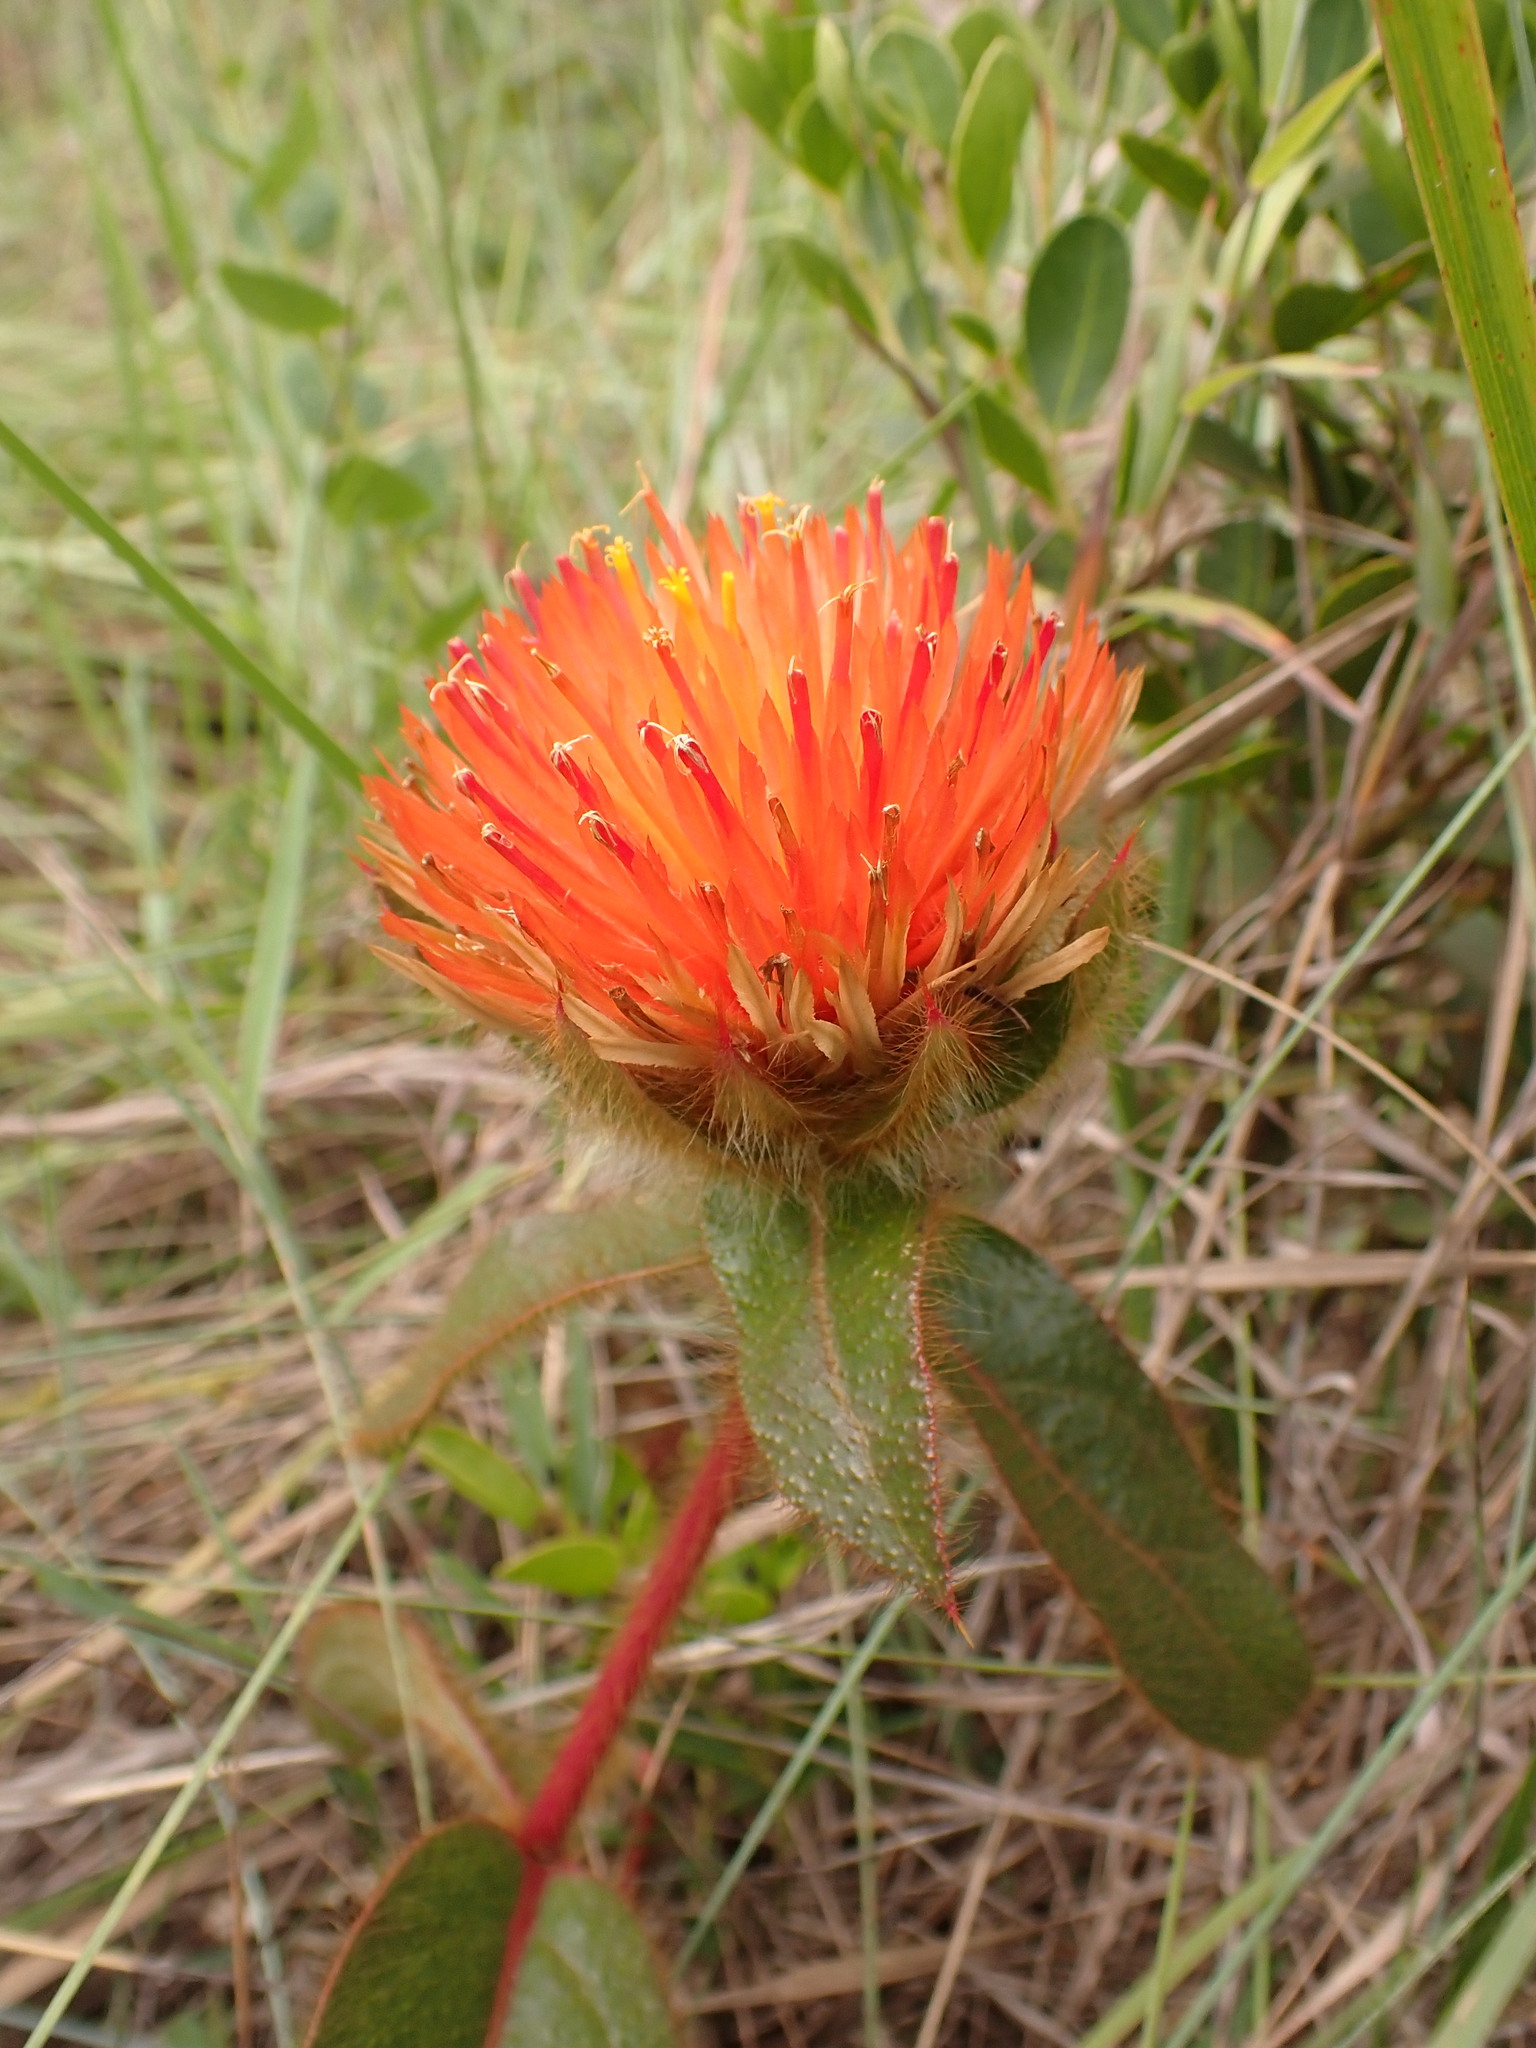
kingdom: Plantae
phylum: Tracheophyta
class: Magnoliopsida
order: Caryophyllales
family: Amaranthaceae
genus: Gomphrena
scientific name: Gomphrena arborescens
